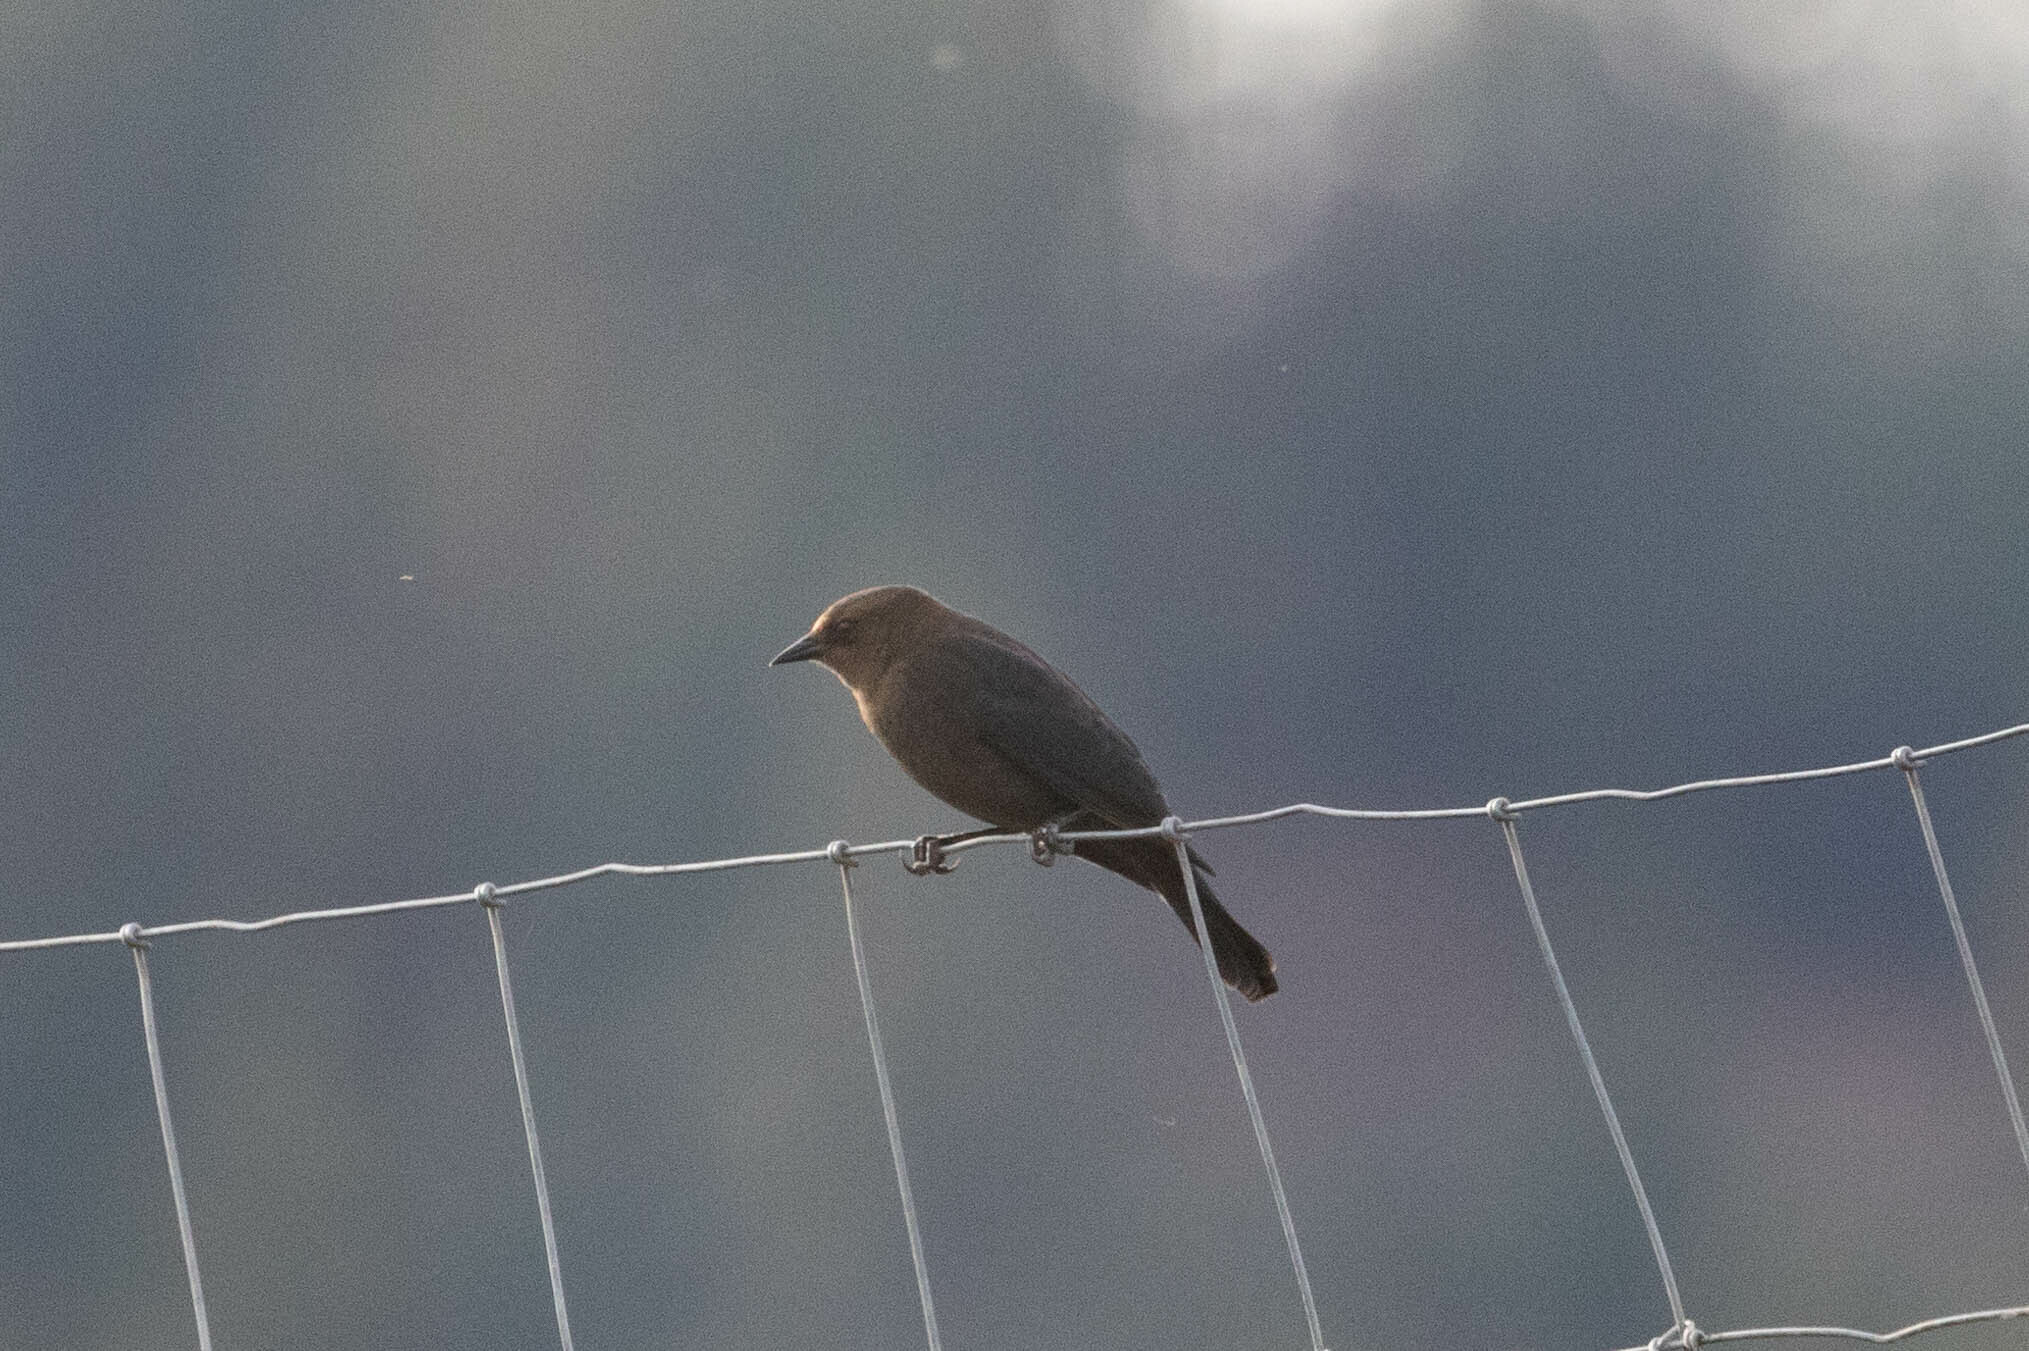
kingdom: Animalia
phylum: Chordata
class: Aves
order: Passeriformes
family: Icteridae
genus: Euphagus
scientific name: Euphagus cyanocephalus
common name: Brewer's blackbird
